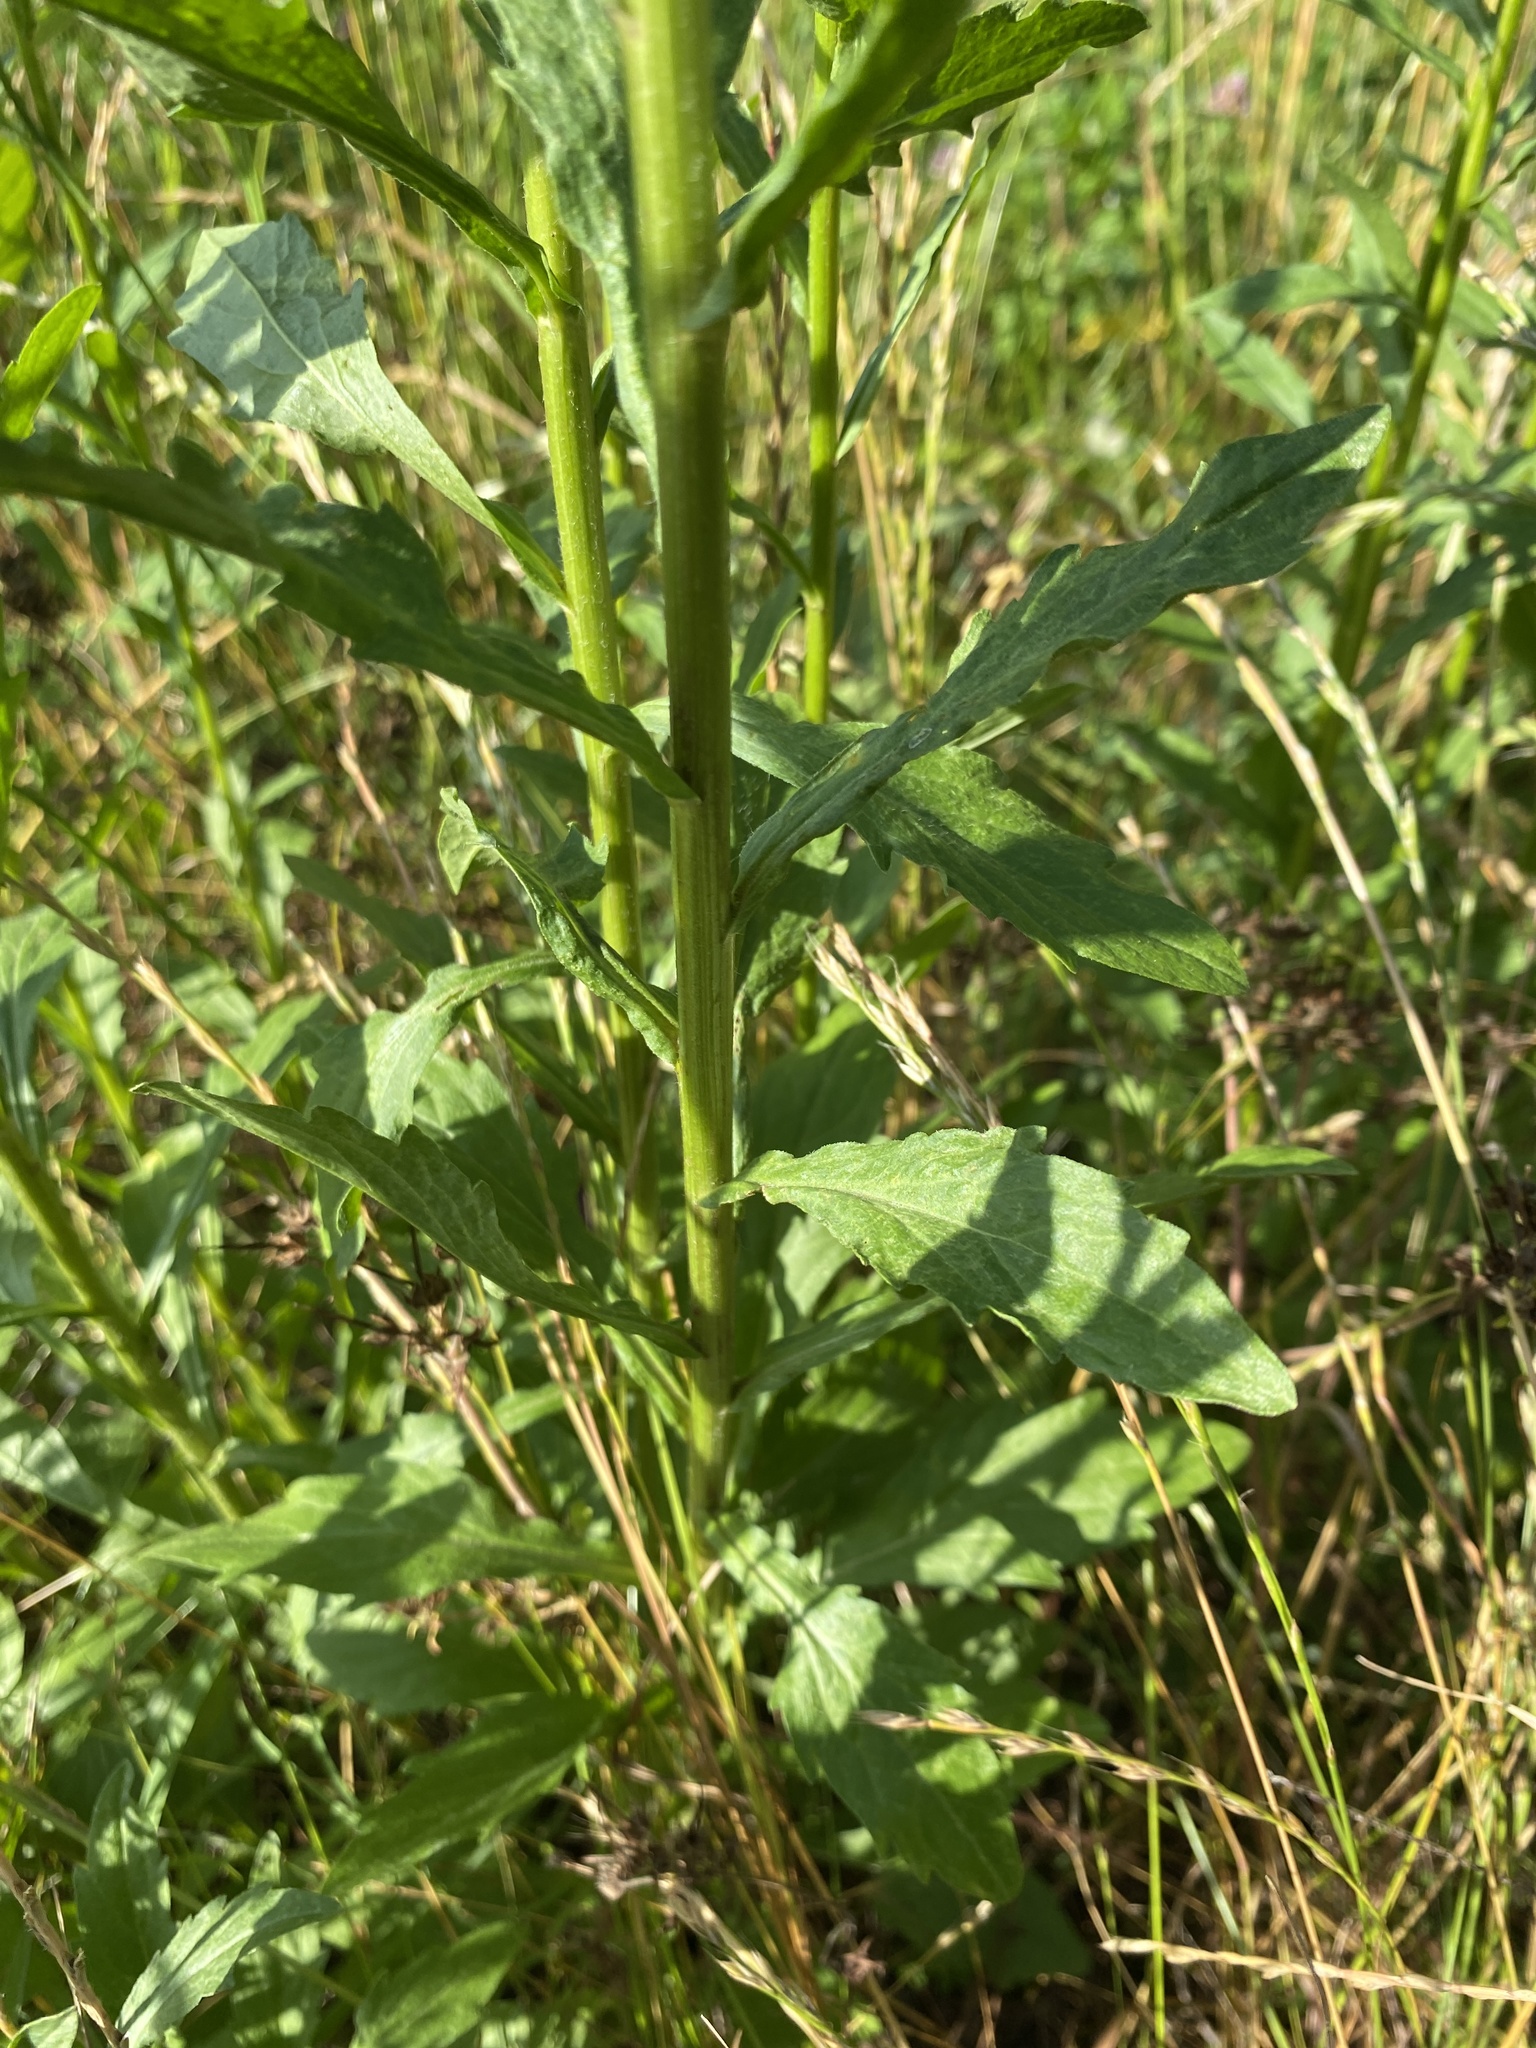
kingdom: Plantae
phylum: Tracheophyta
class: Magnoliopsida
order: Asterales
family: Asteraceae
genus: Erigeron
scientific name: Erigeron annuus
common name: Tall fleabane
